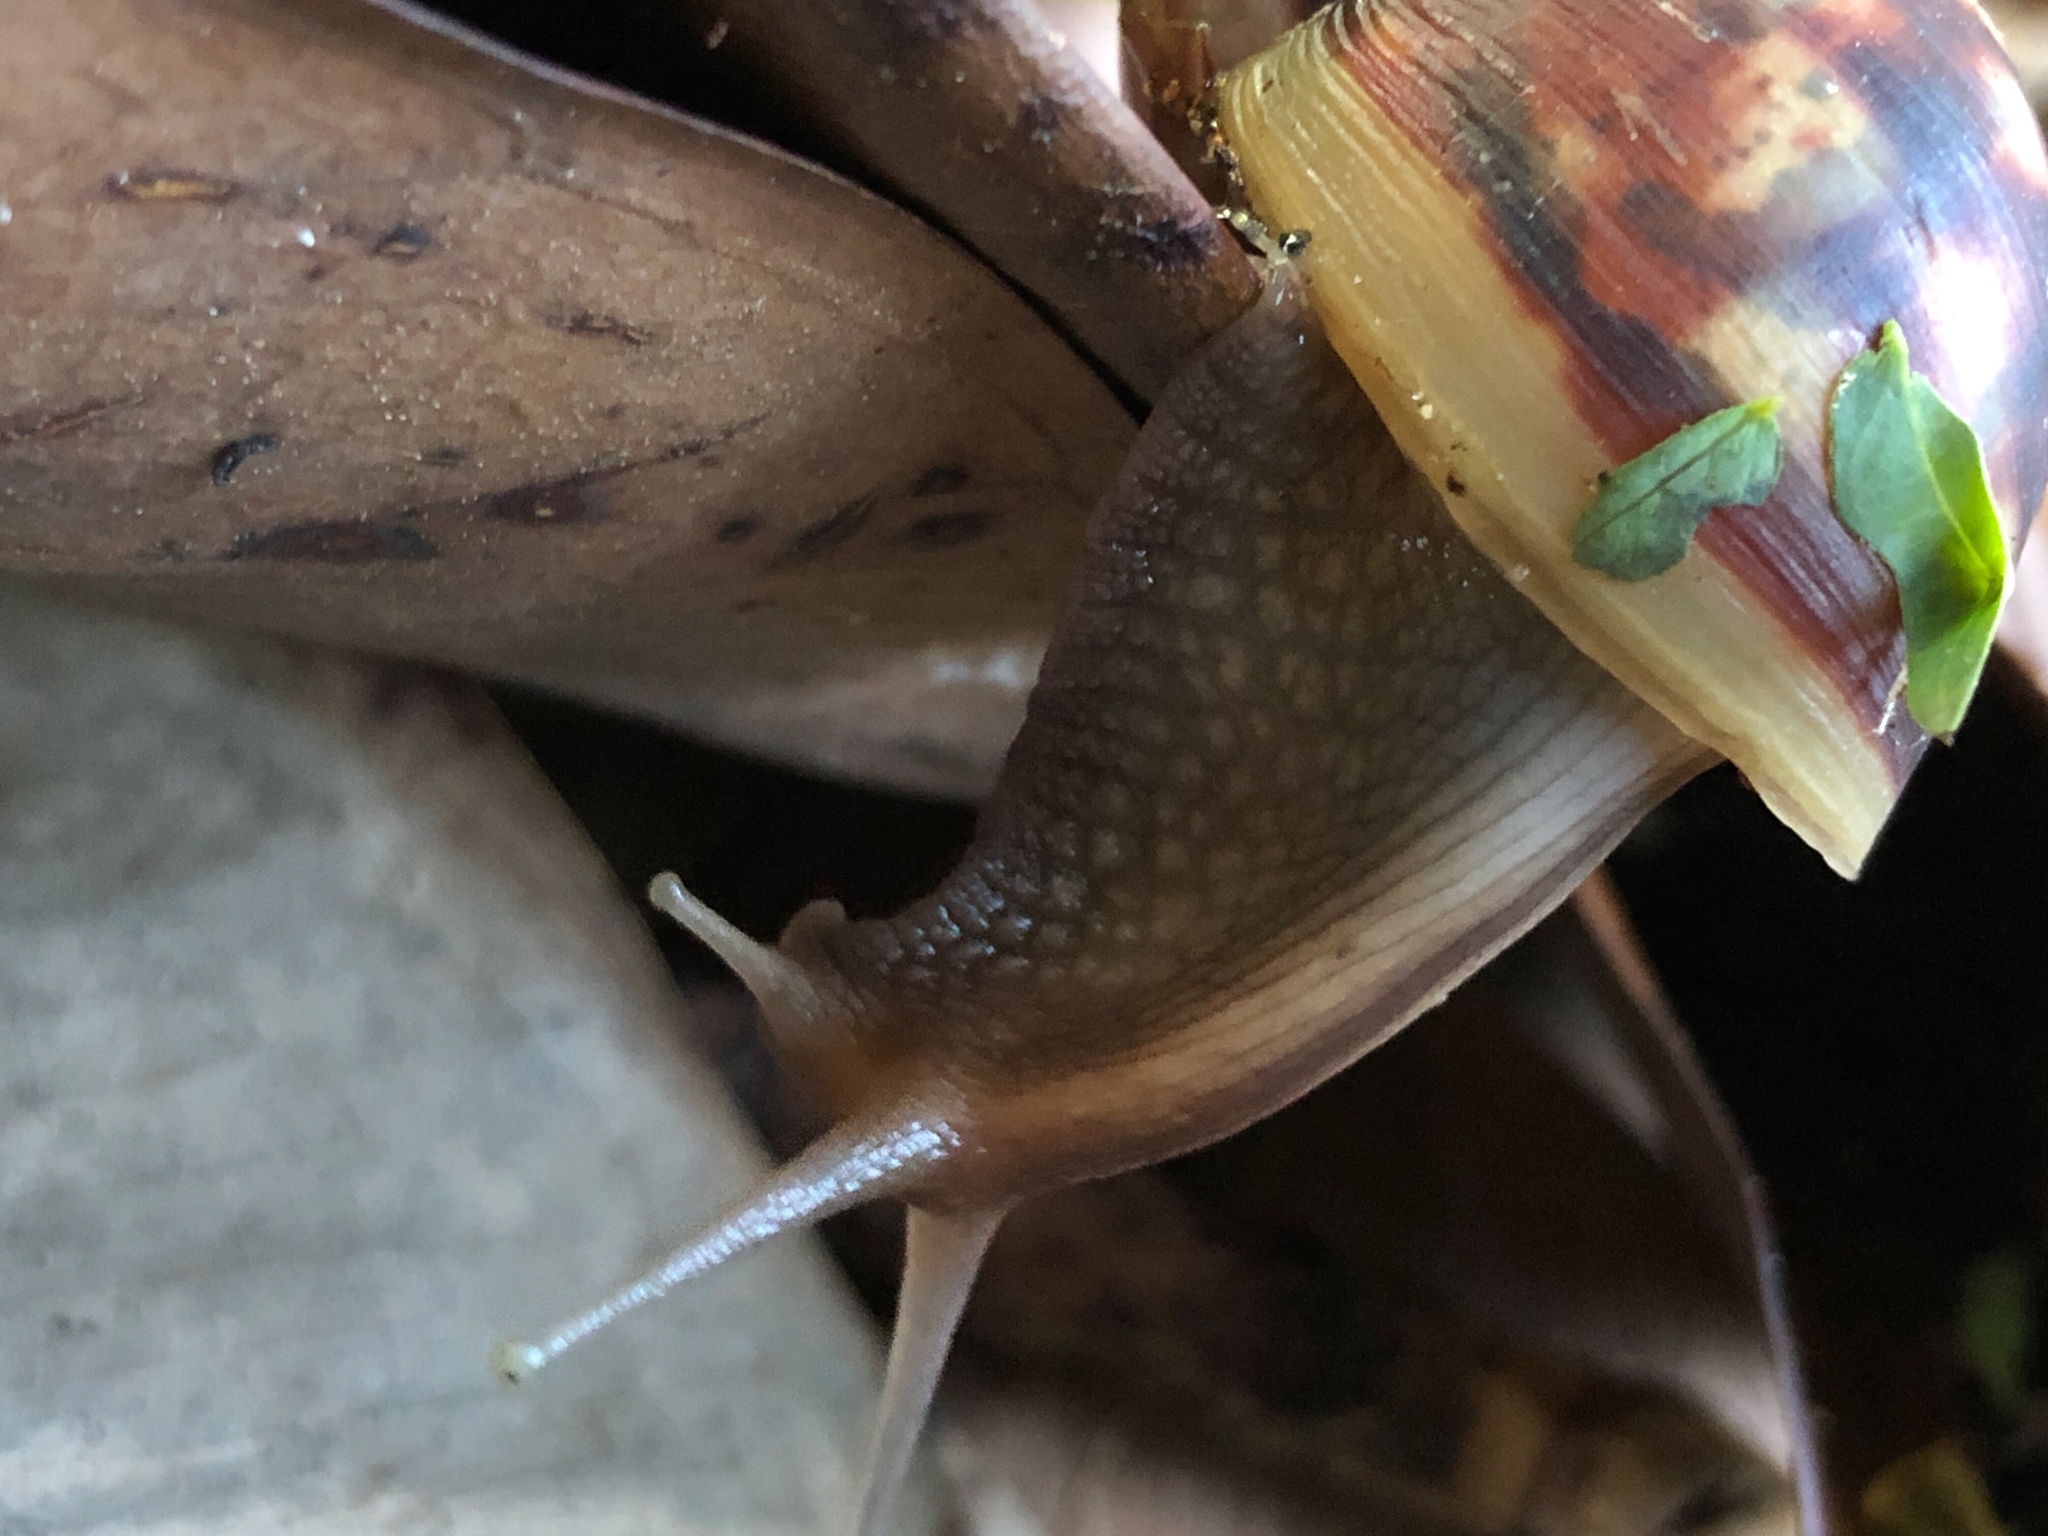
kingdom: Animalia
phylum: Mollusca
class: Gastropoda
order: Stylommatophora
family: Achatinidae
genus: Lissachatina
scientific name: Lissachatina fulica
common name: Giant african snail
